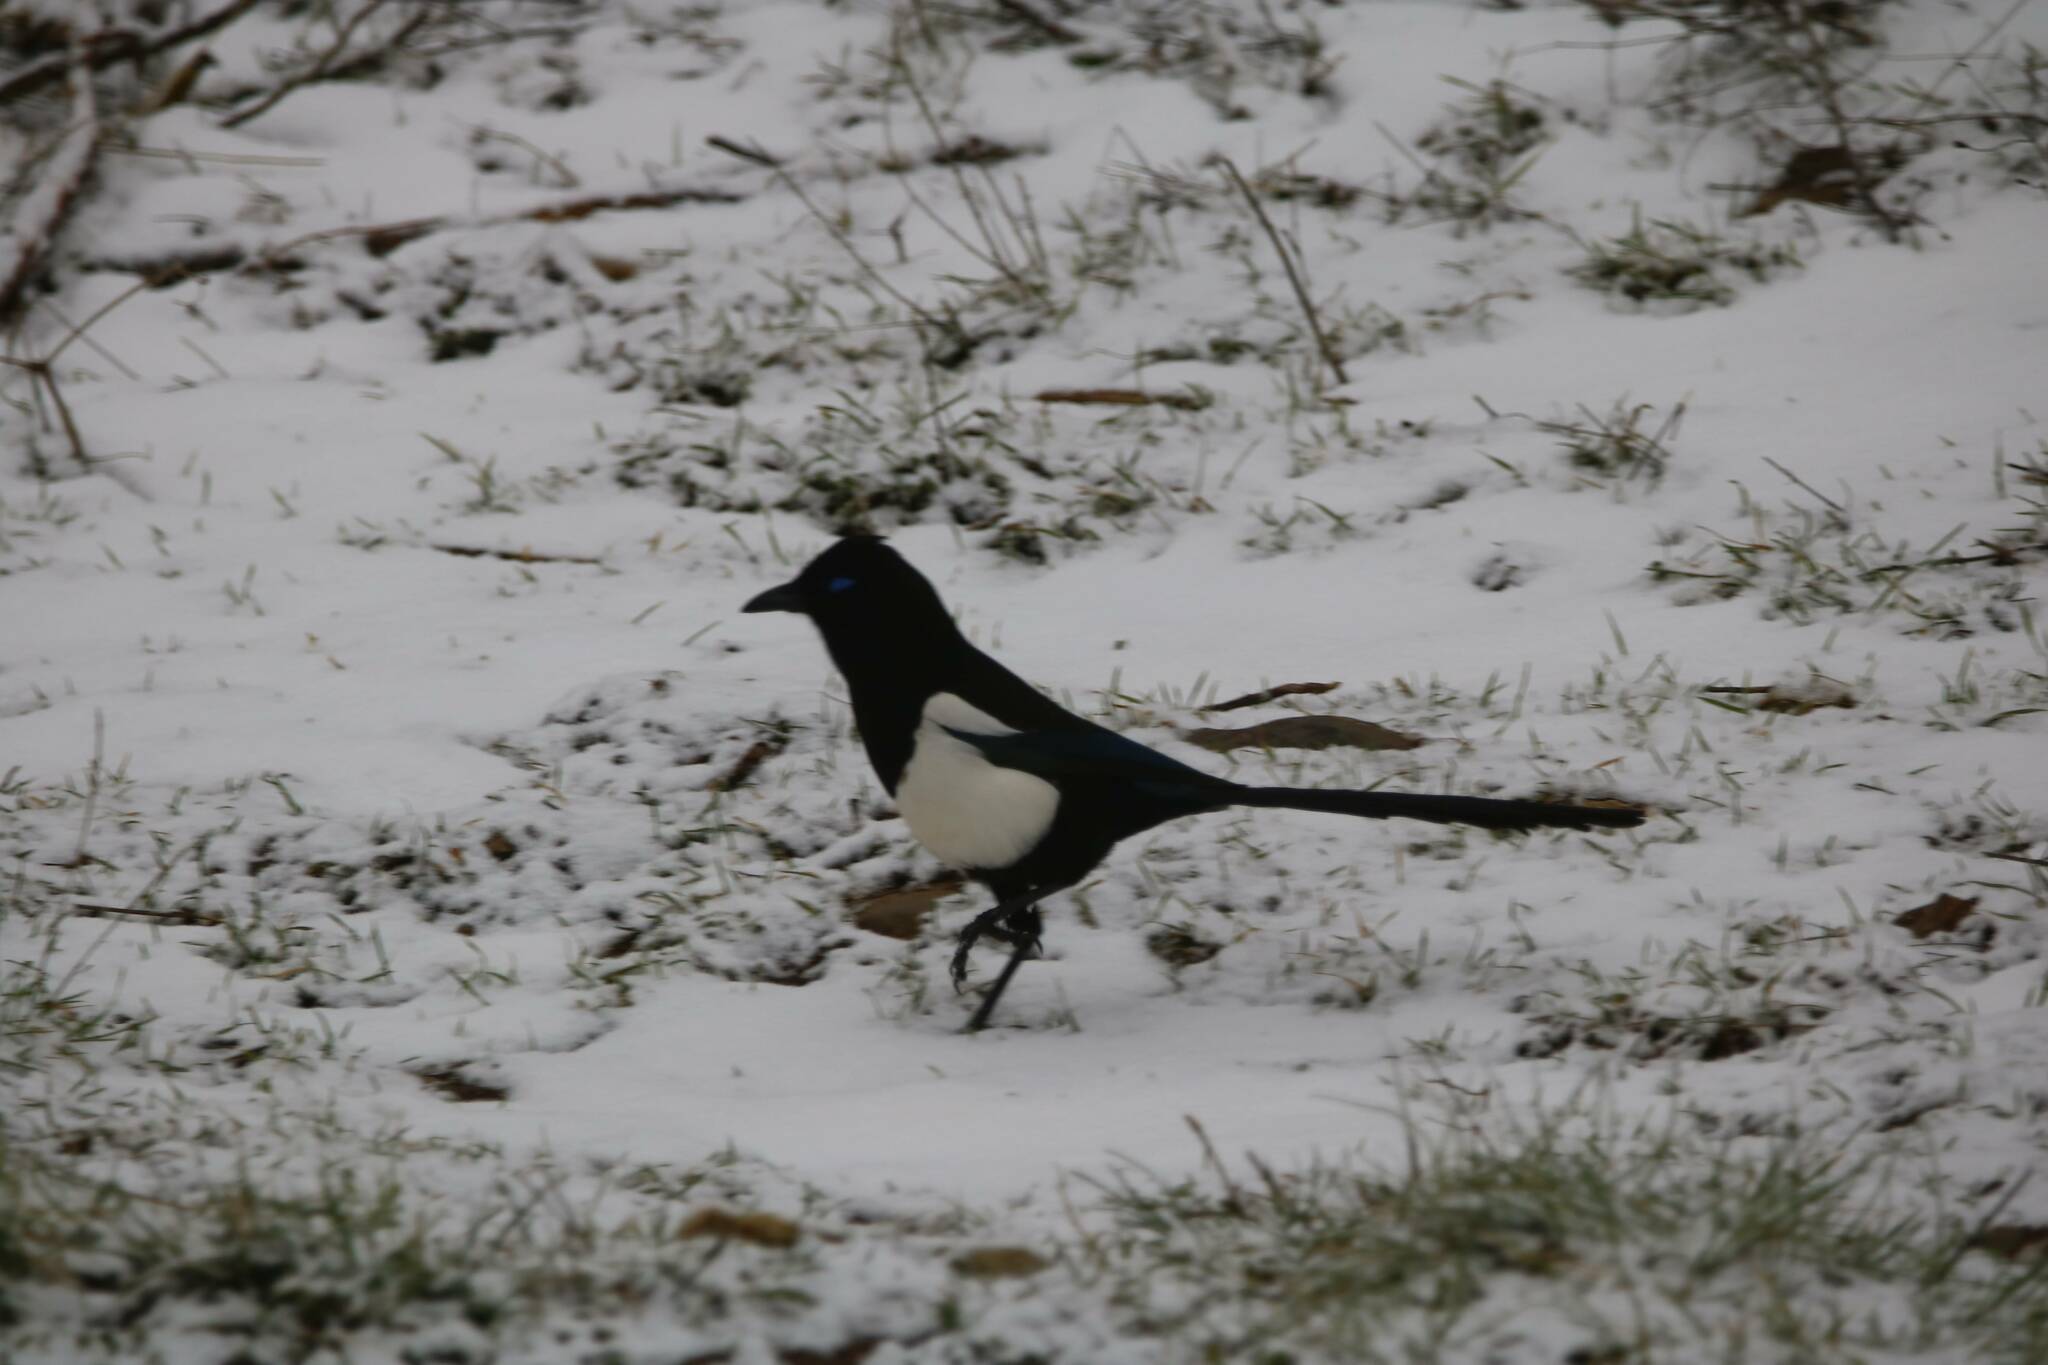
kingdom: Animalia
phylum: Chordata
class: Aves
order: Passeriformes
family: Corvidae
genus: Pica
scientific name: Pica mauritanica
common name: Maghreb magpie
